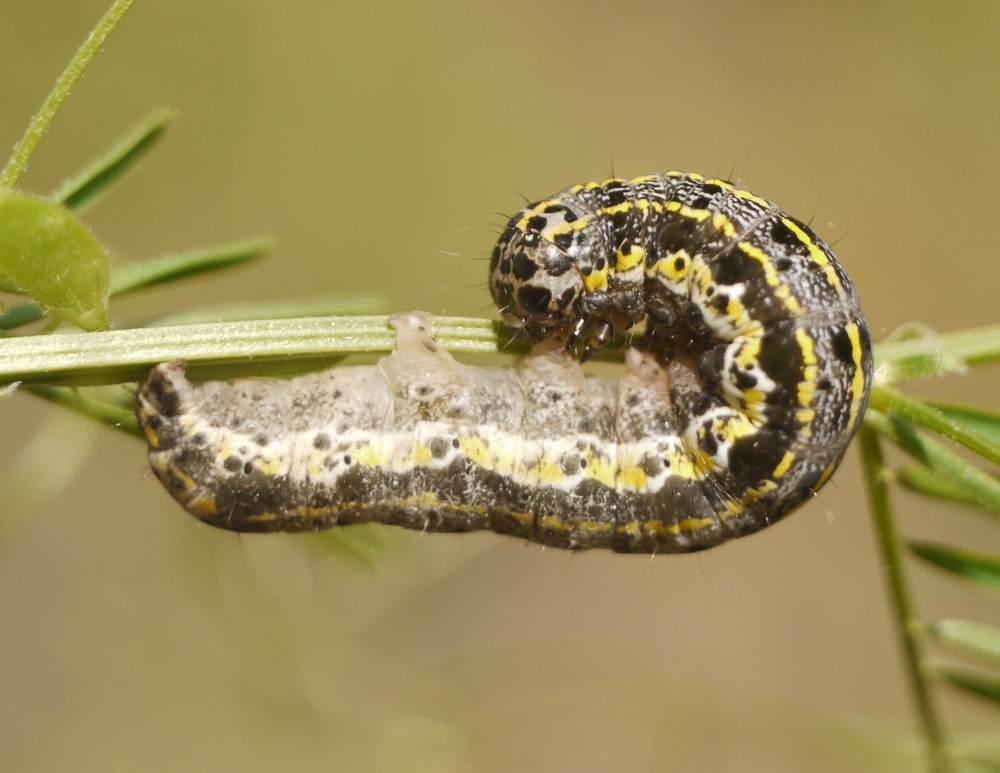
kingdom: Animalia
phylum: Arthropoda
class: Insecta
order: Lepidoptera
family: Noctuidae
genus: Orthosia
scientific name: Orthosia miniosa
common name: Blossom underwing
